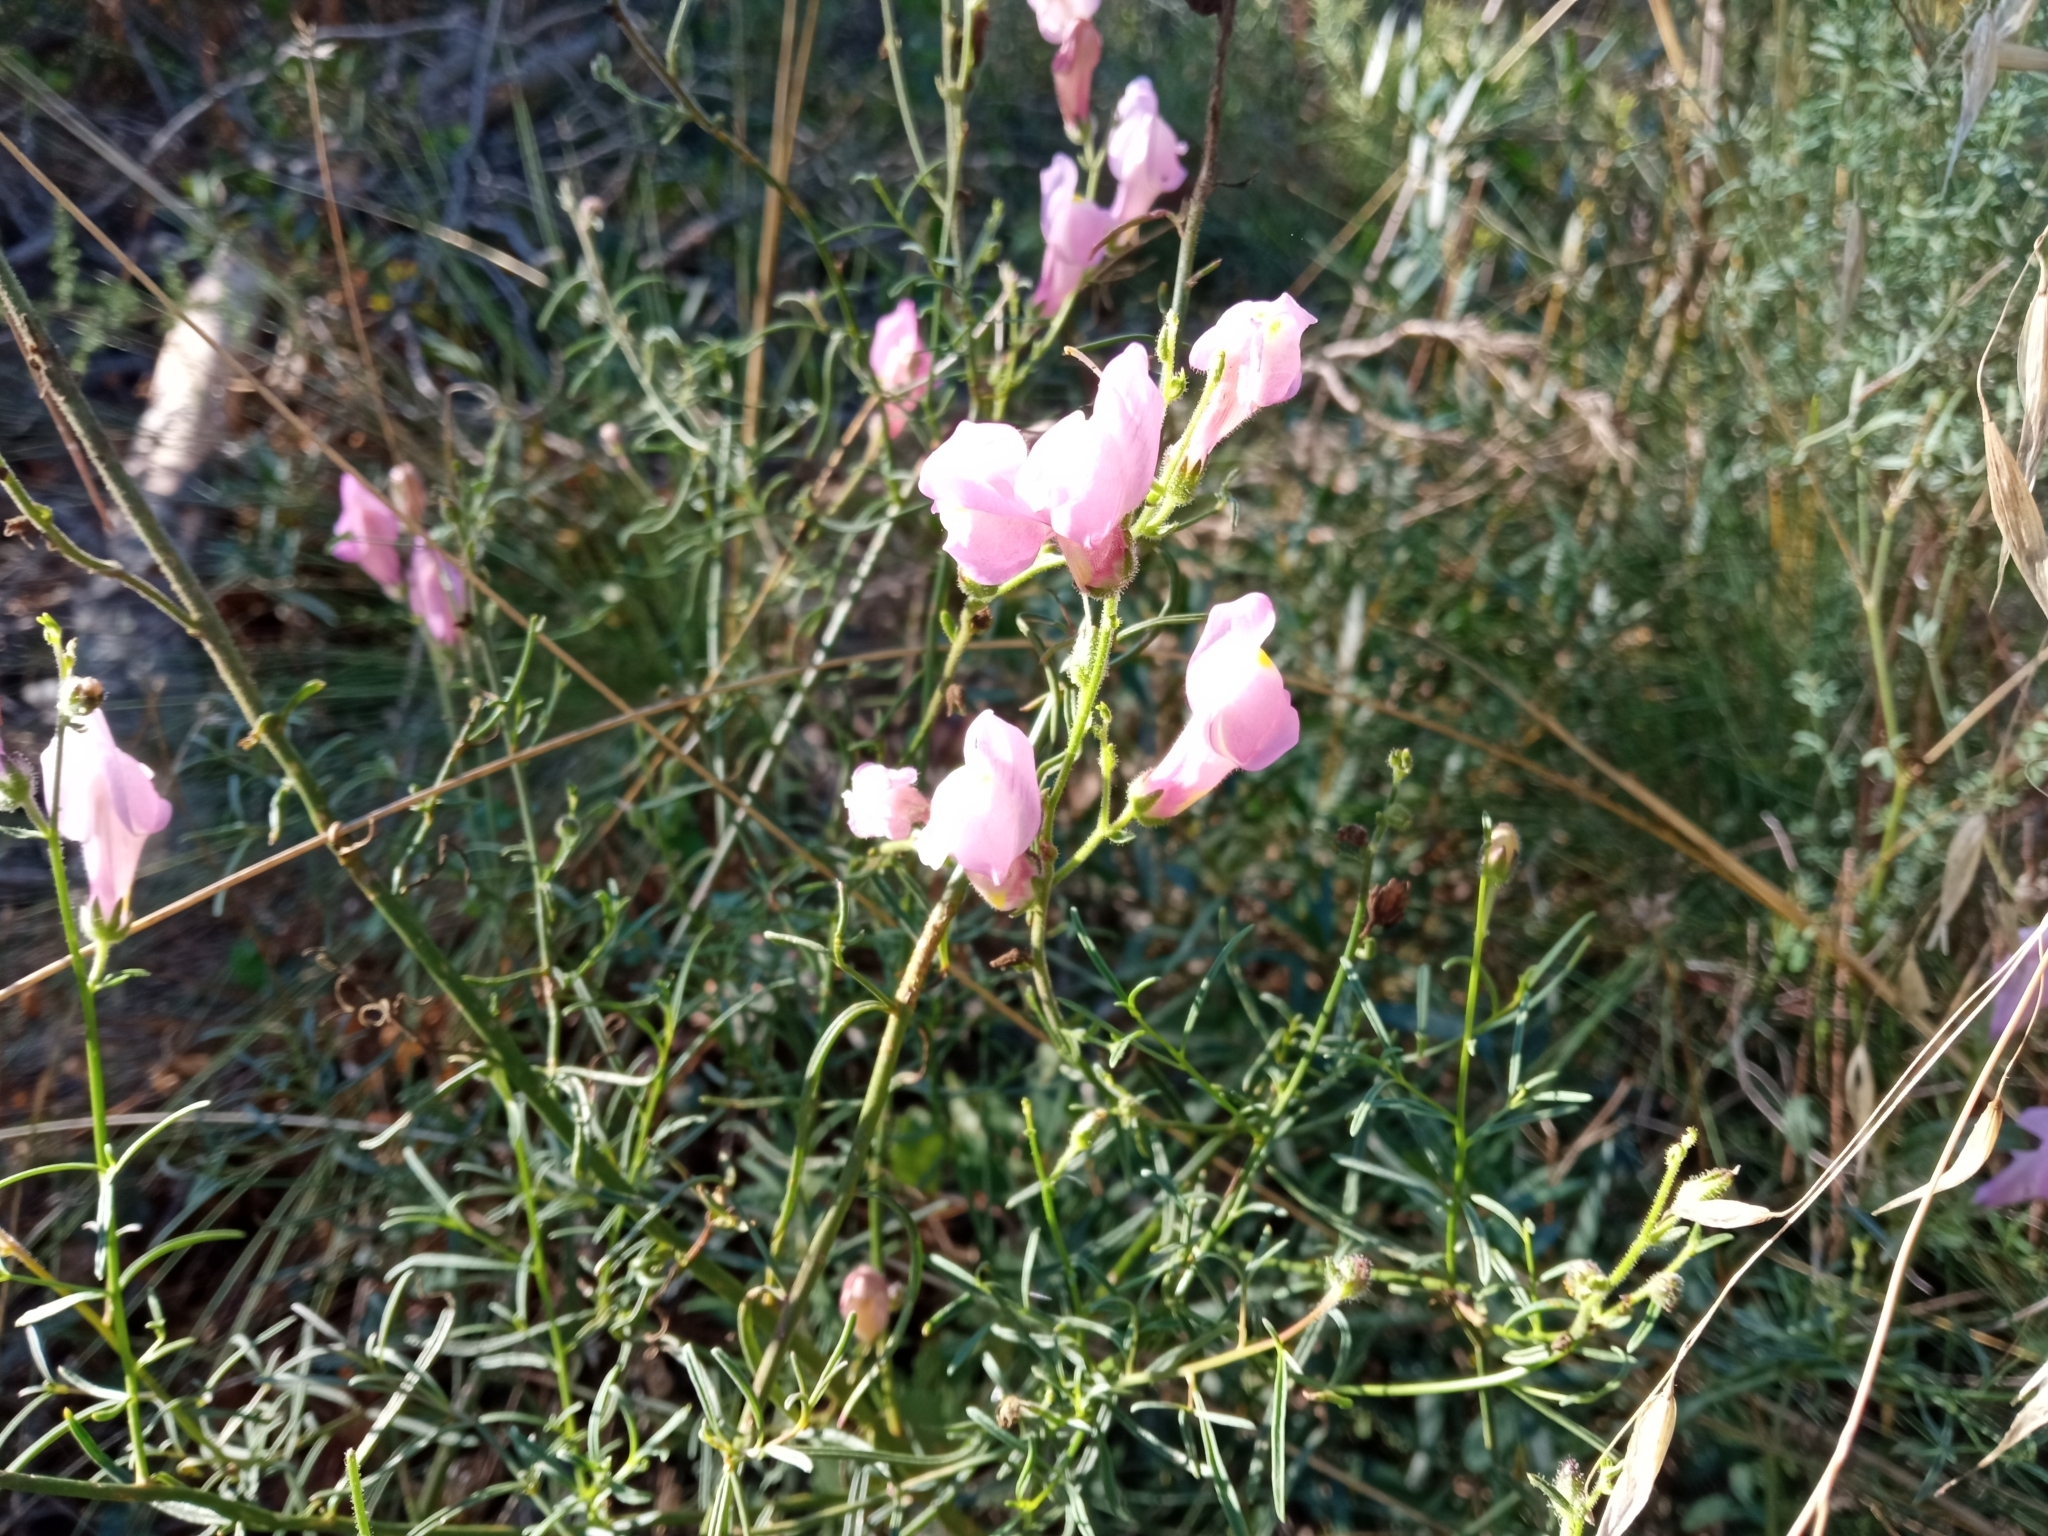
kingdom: Plantae
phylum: Tracheophyta
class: Magnoliopsida
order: Lamiales
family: Plantaginaceae
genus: Antirrhinum
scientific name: Antirrhinum litigiosum
